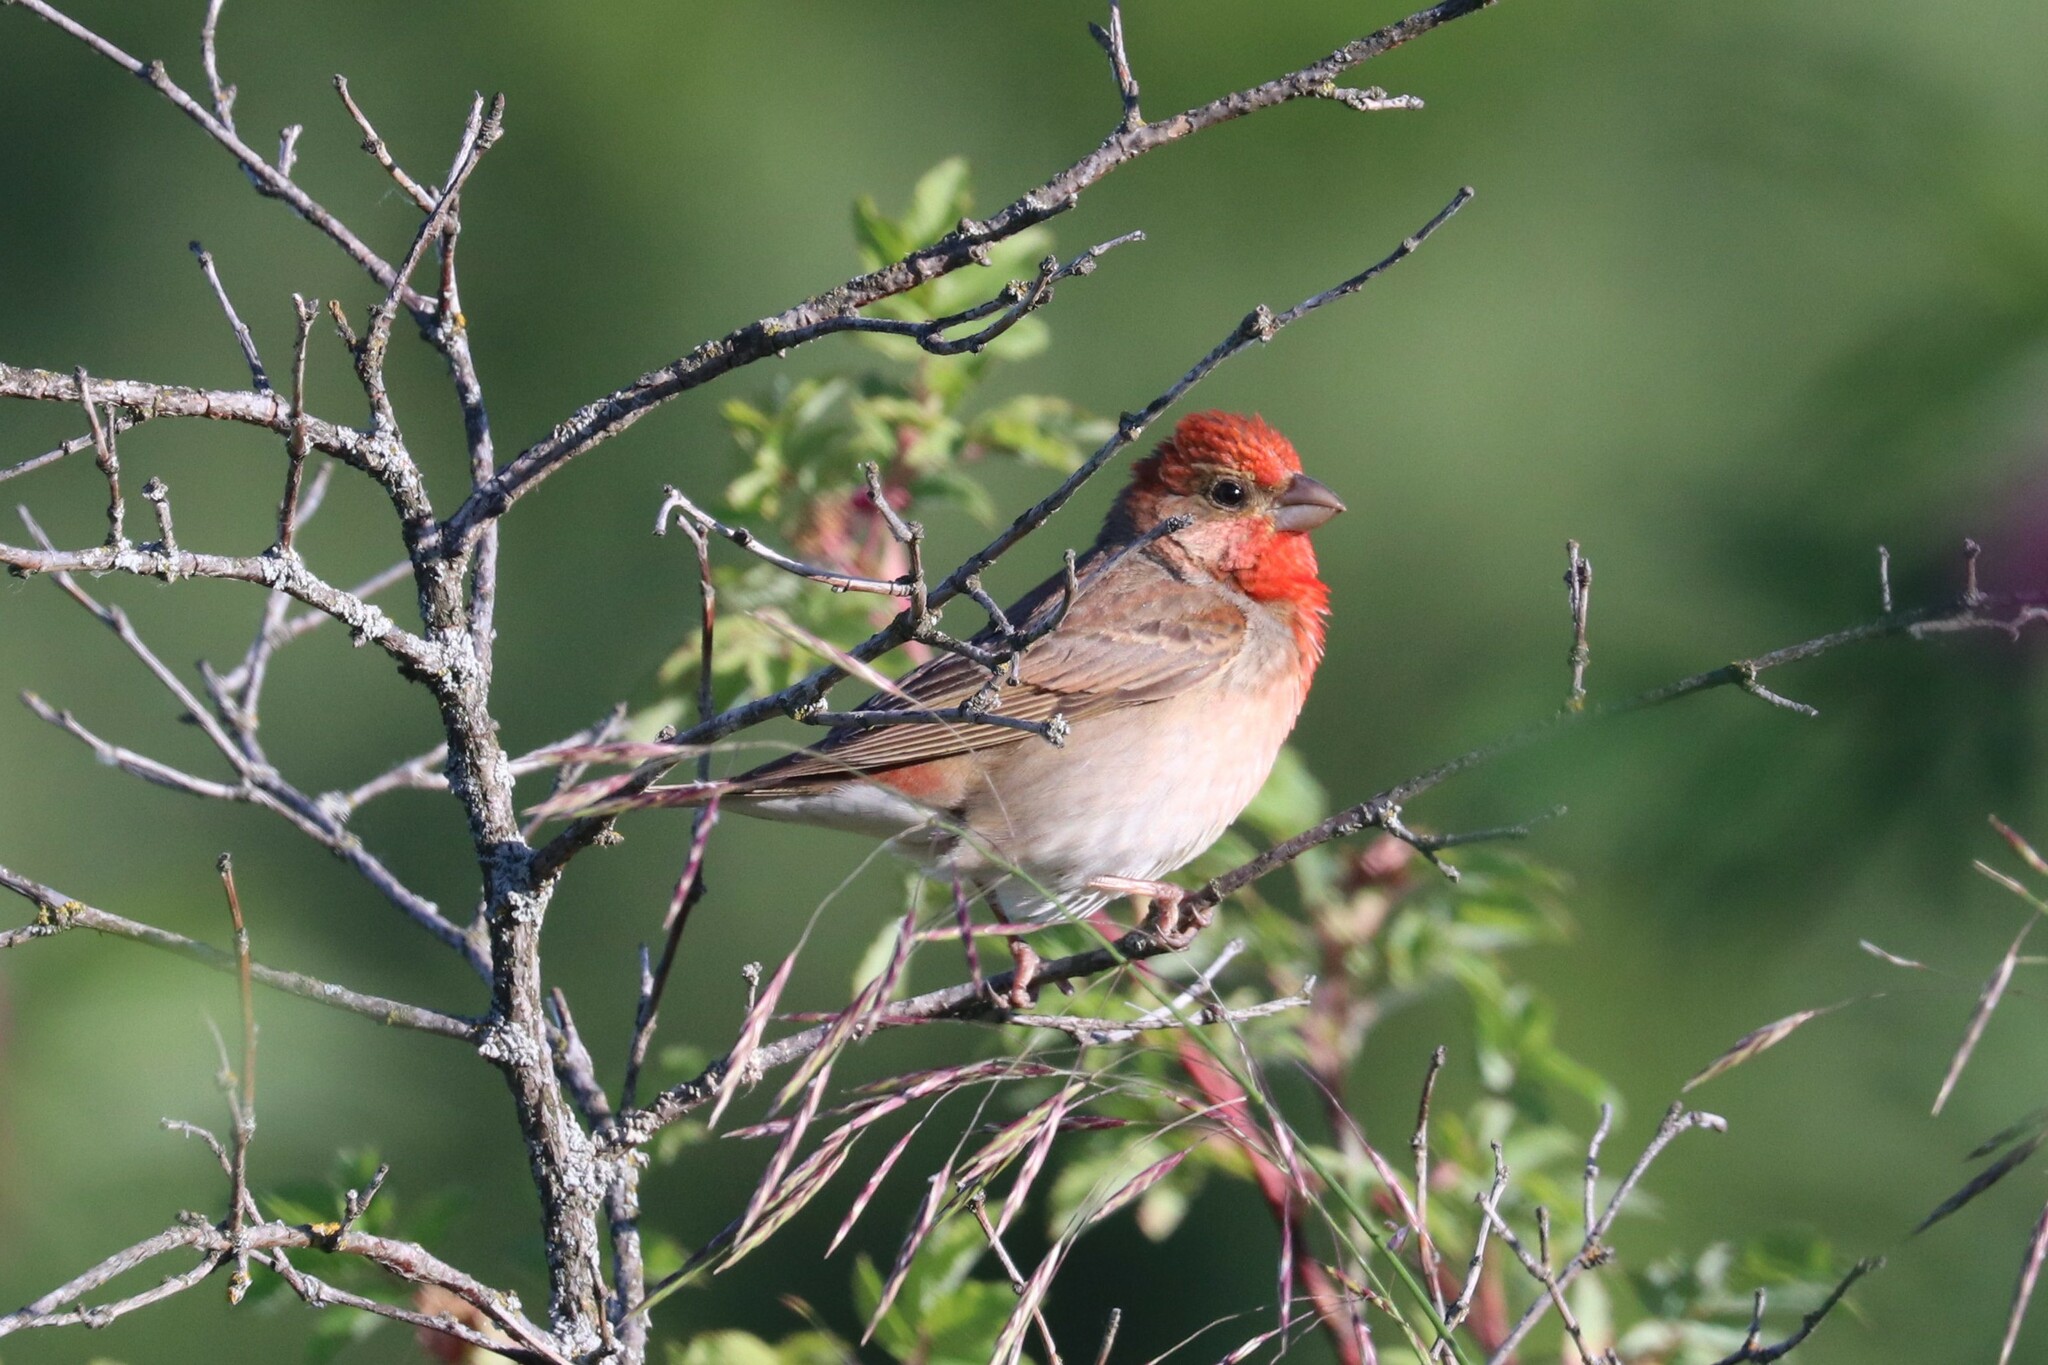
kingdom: Animalia
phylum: Chordata
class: Aves
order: Passeriformes
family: Fringillidae
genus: Carpodacus
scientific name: Carpodacus erythrinus
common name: Common rosefinch
